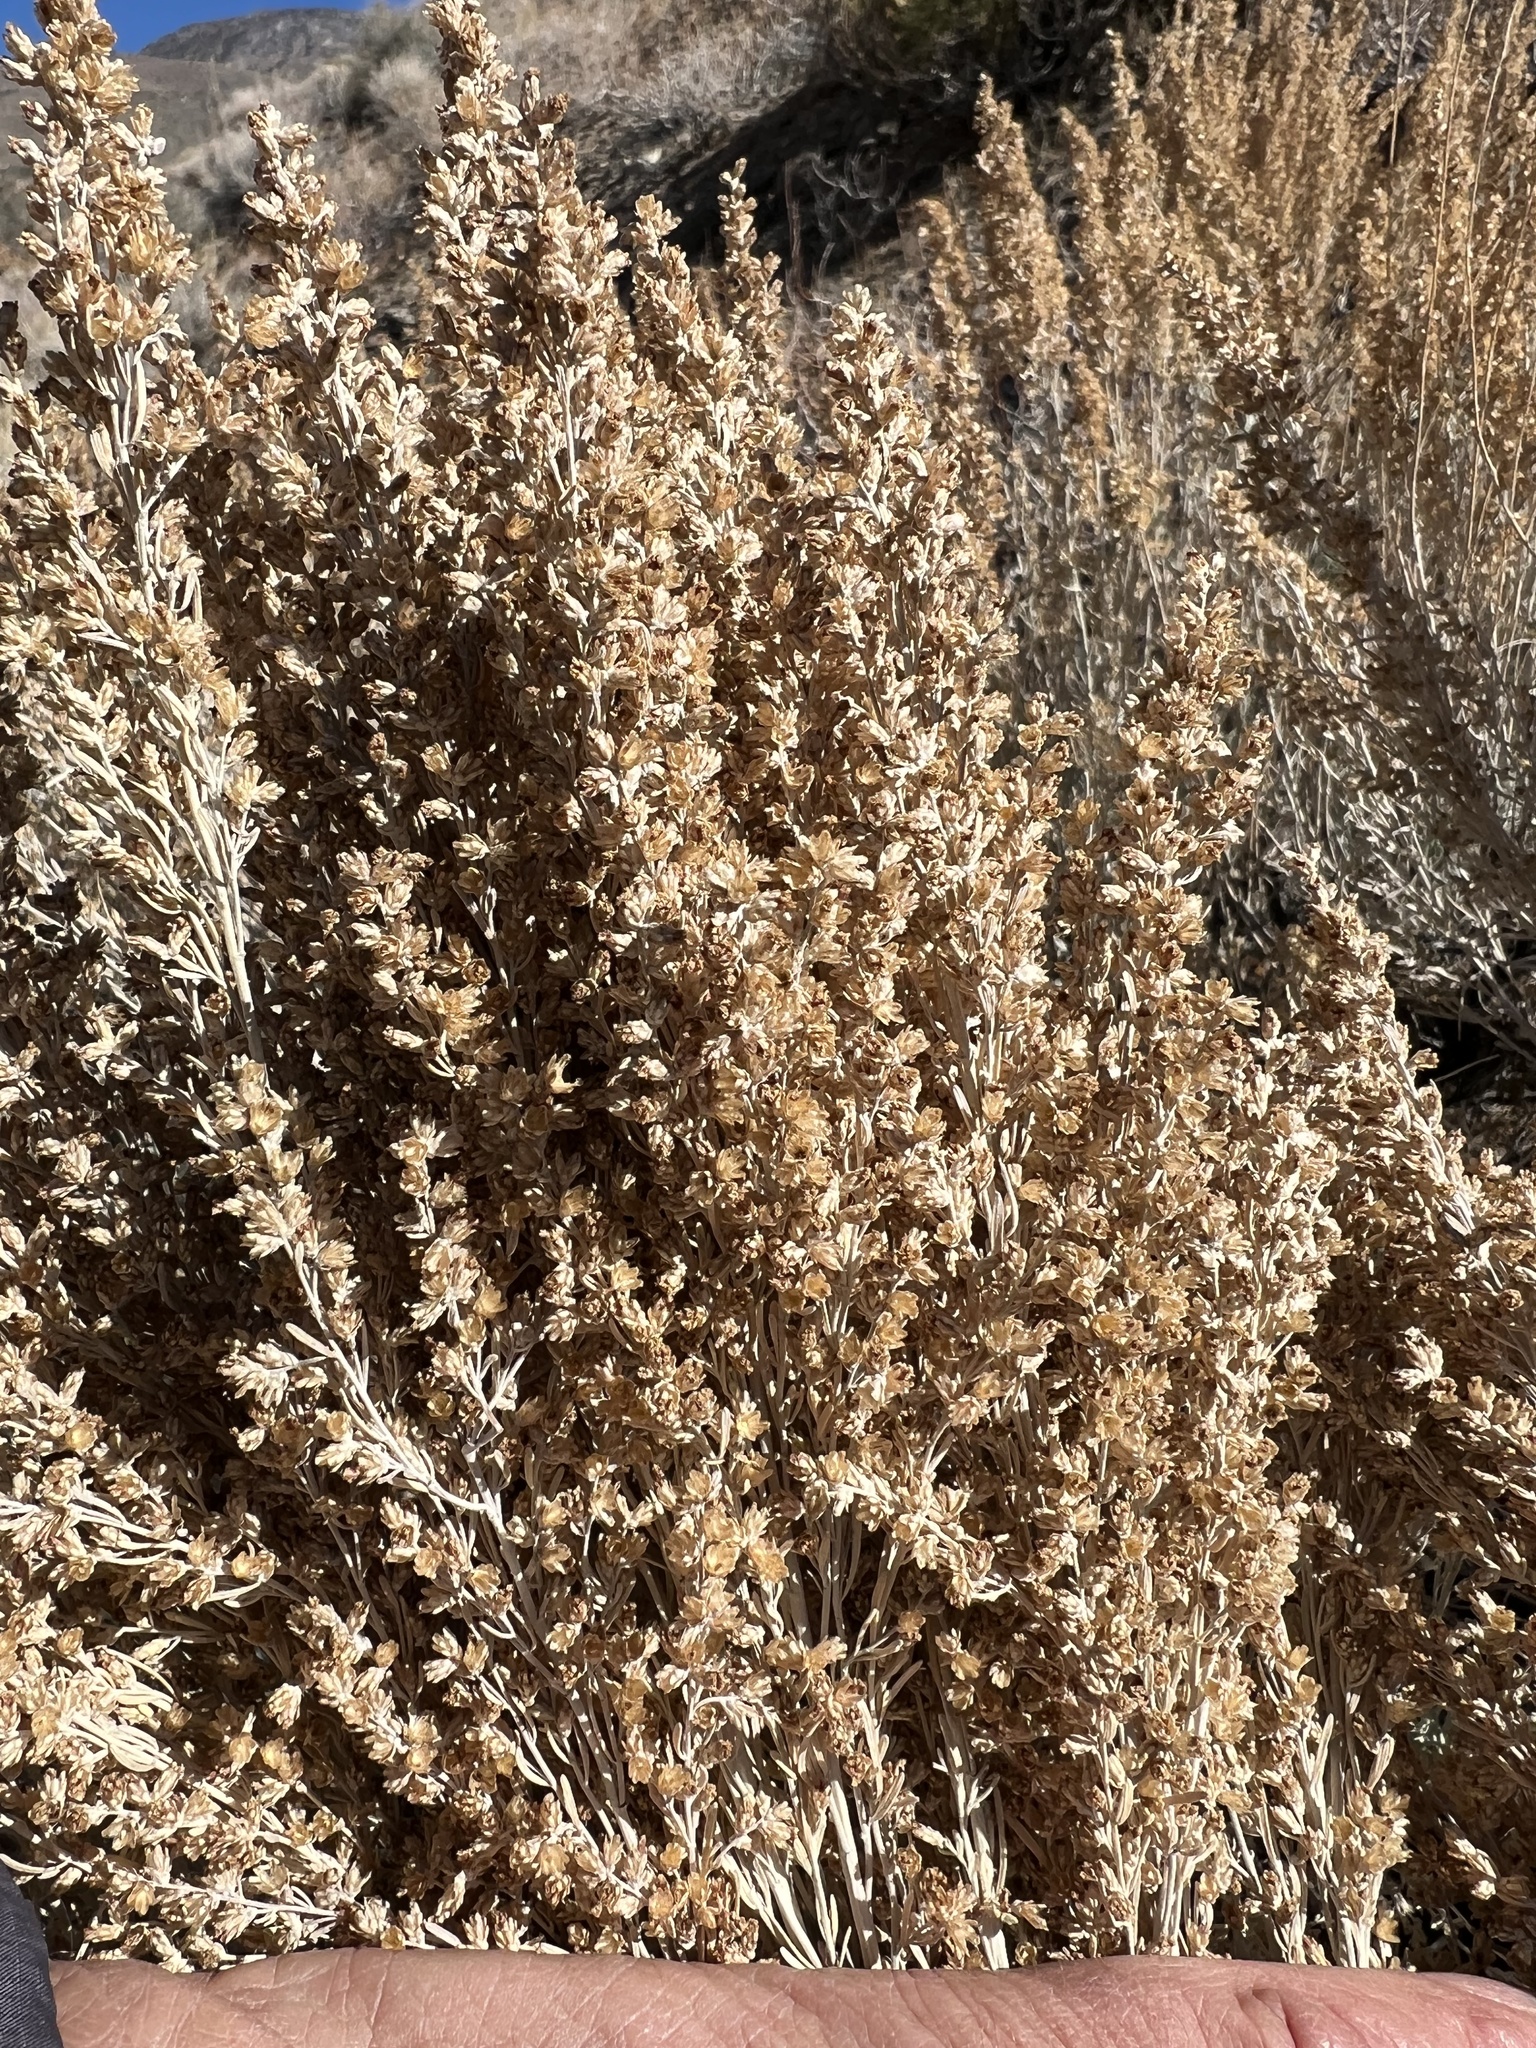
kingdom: Plantae
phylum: Tracheophyta
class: Magnoliopsida
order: Asterales
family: Asteraceae
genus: Artemisia
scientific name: Artemisia tridentata
